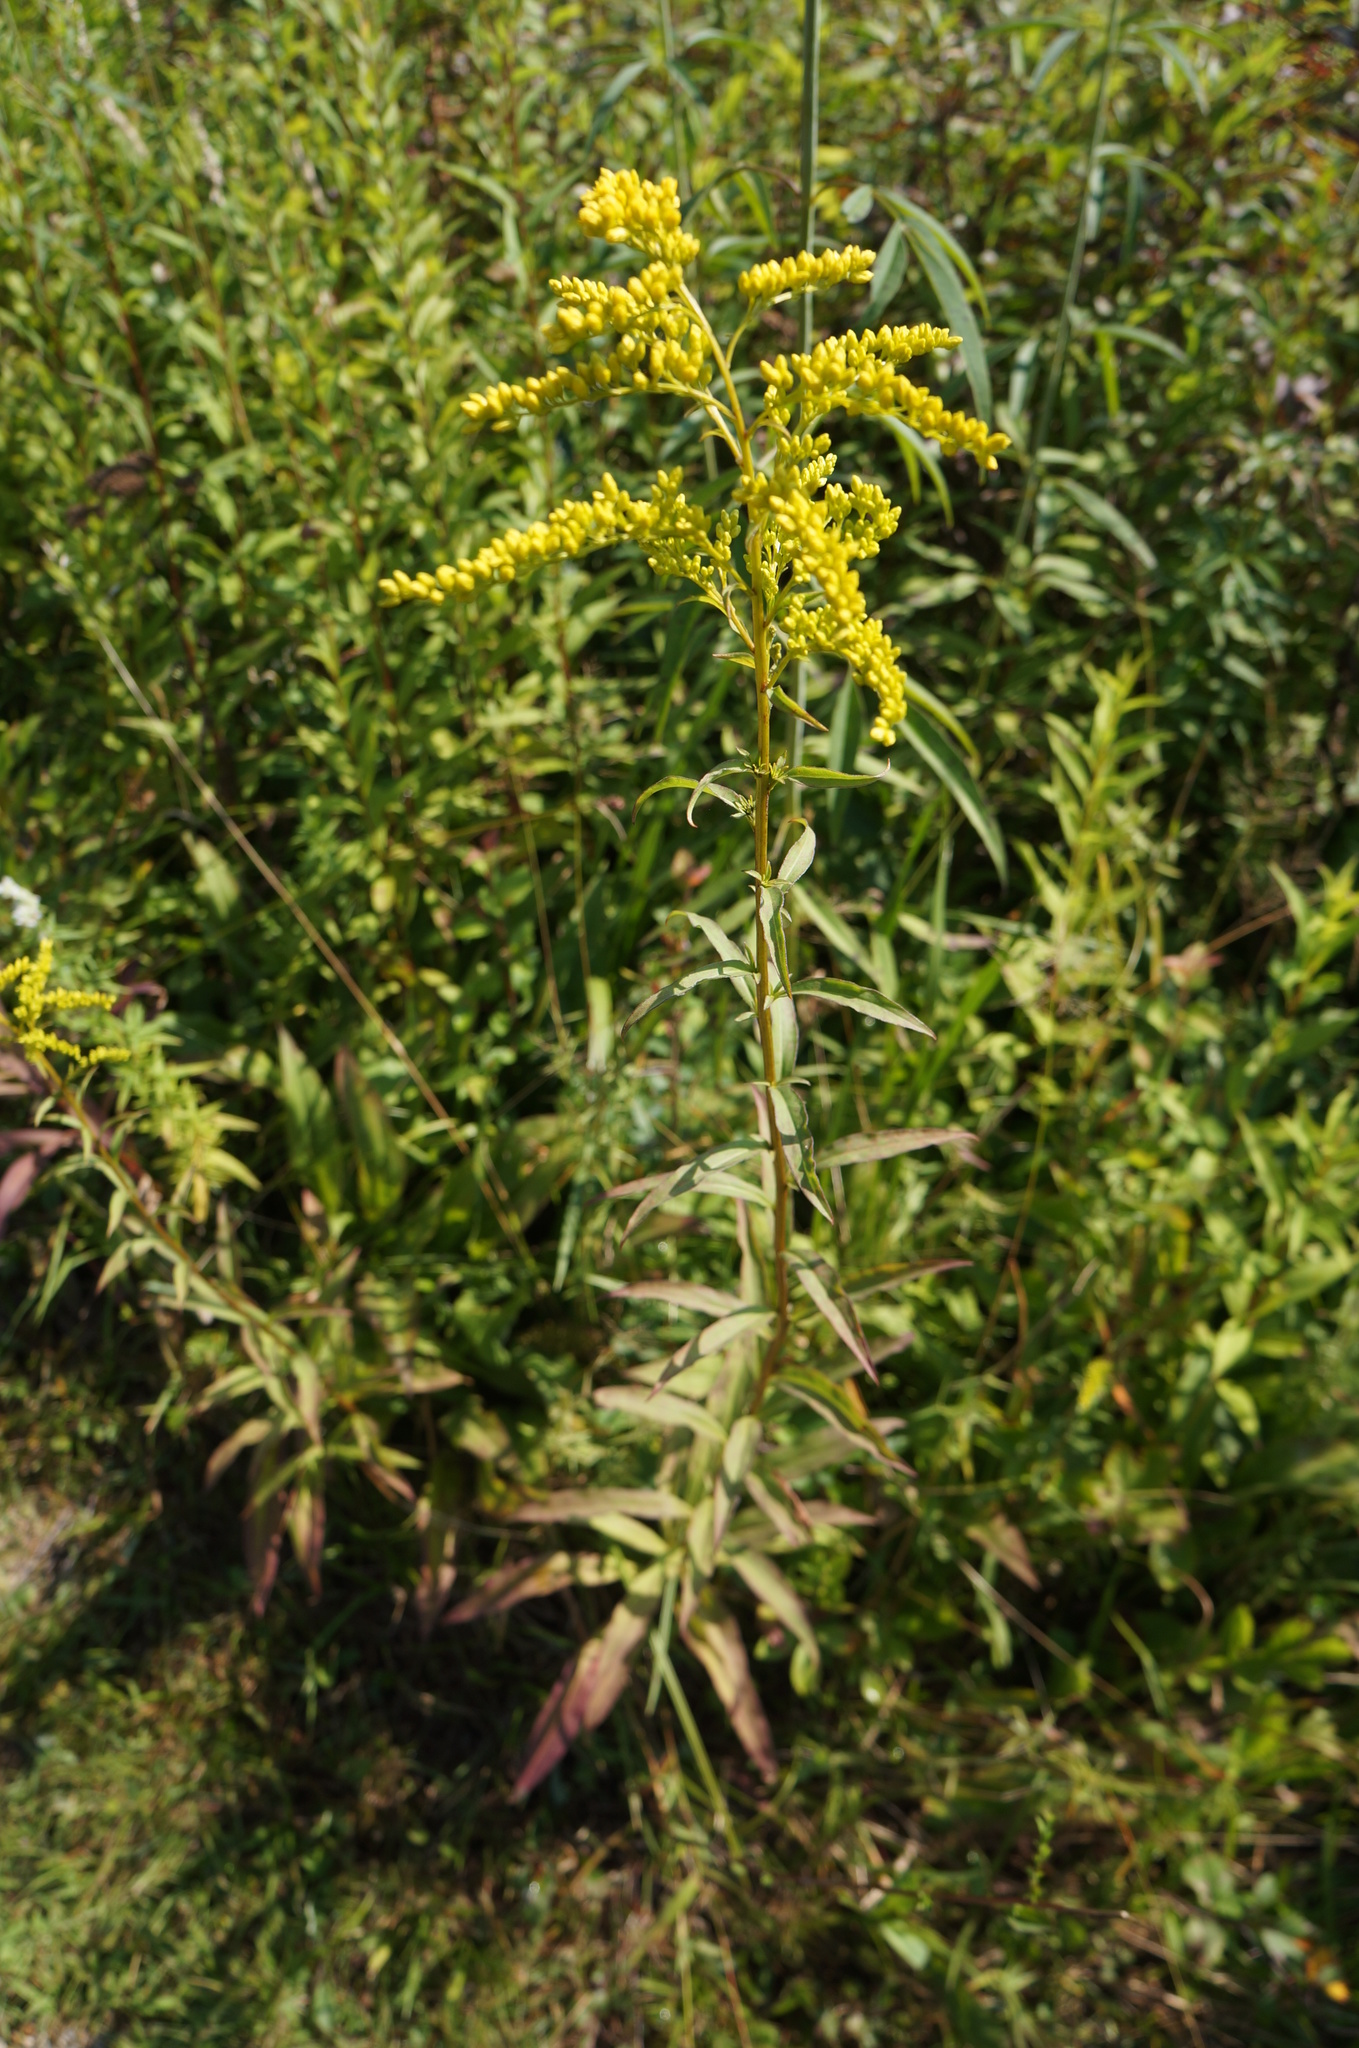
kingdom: Plantae
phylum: Tracheophyta
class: Magnoliopsida
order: Asterales
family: Asteraceae
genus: Solidago
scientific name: Solidago juncea
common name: Early goldenrod
